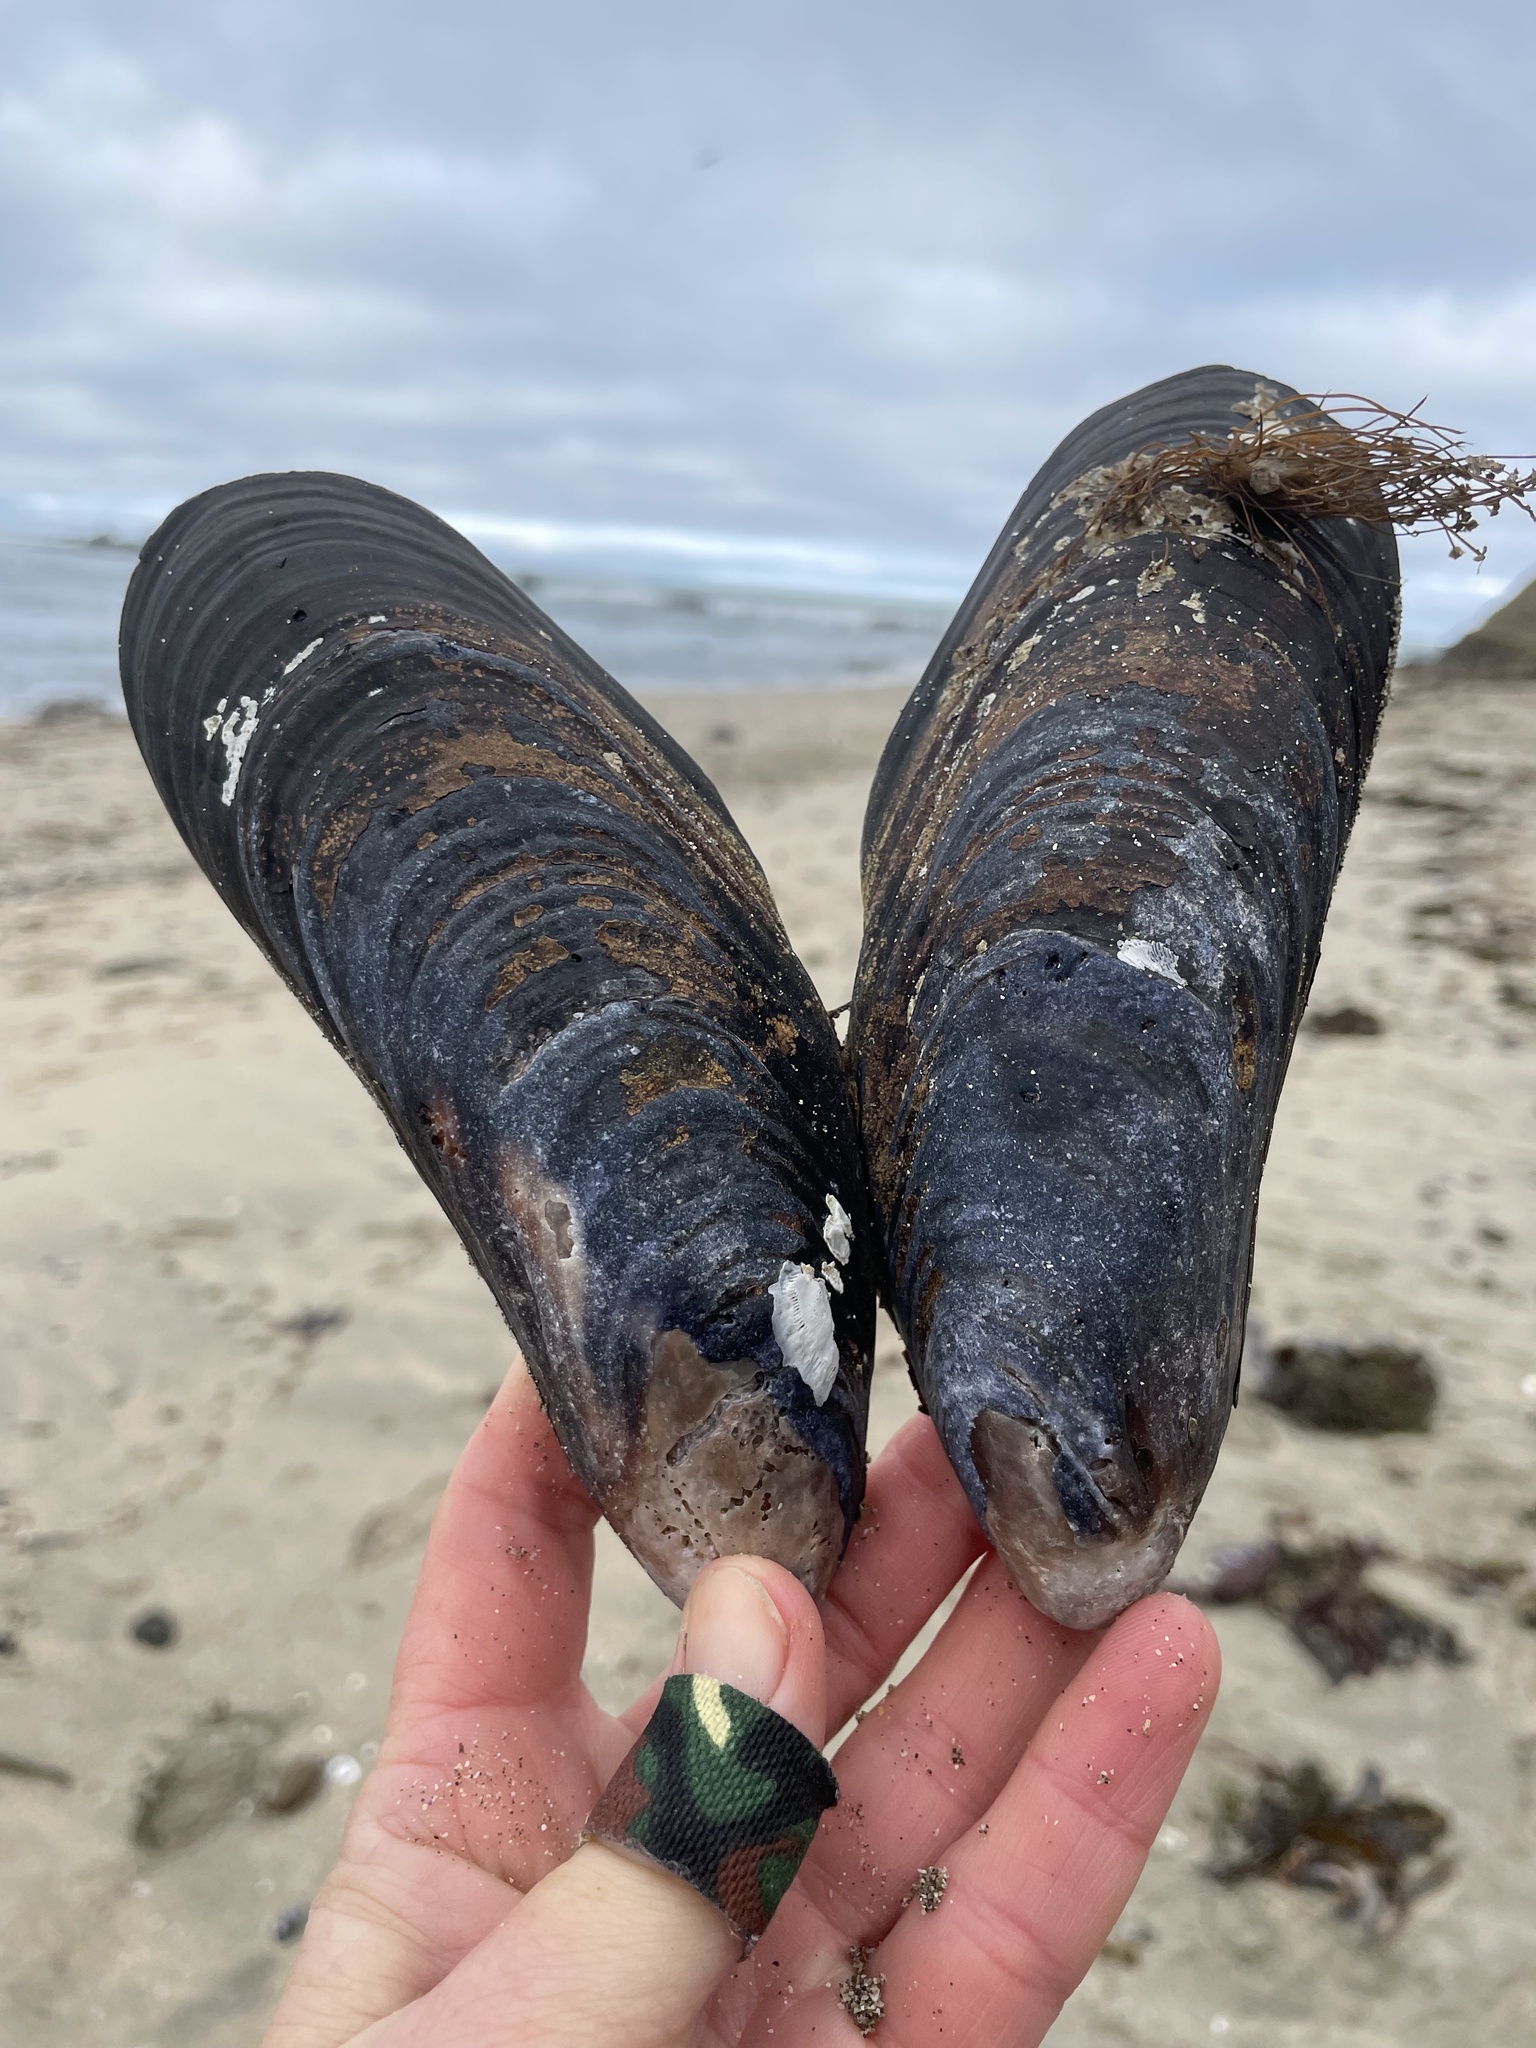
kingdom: Animalia
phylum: Mollusca
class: Bivalvia
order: Mytilida
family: Mytilidae
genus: Mytilus
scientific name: Mytilus californianus
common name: California mussel
